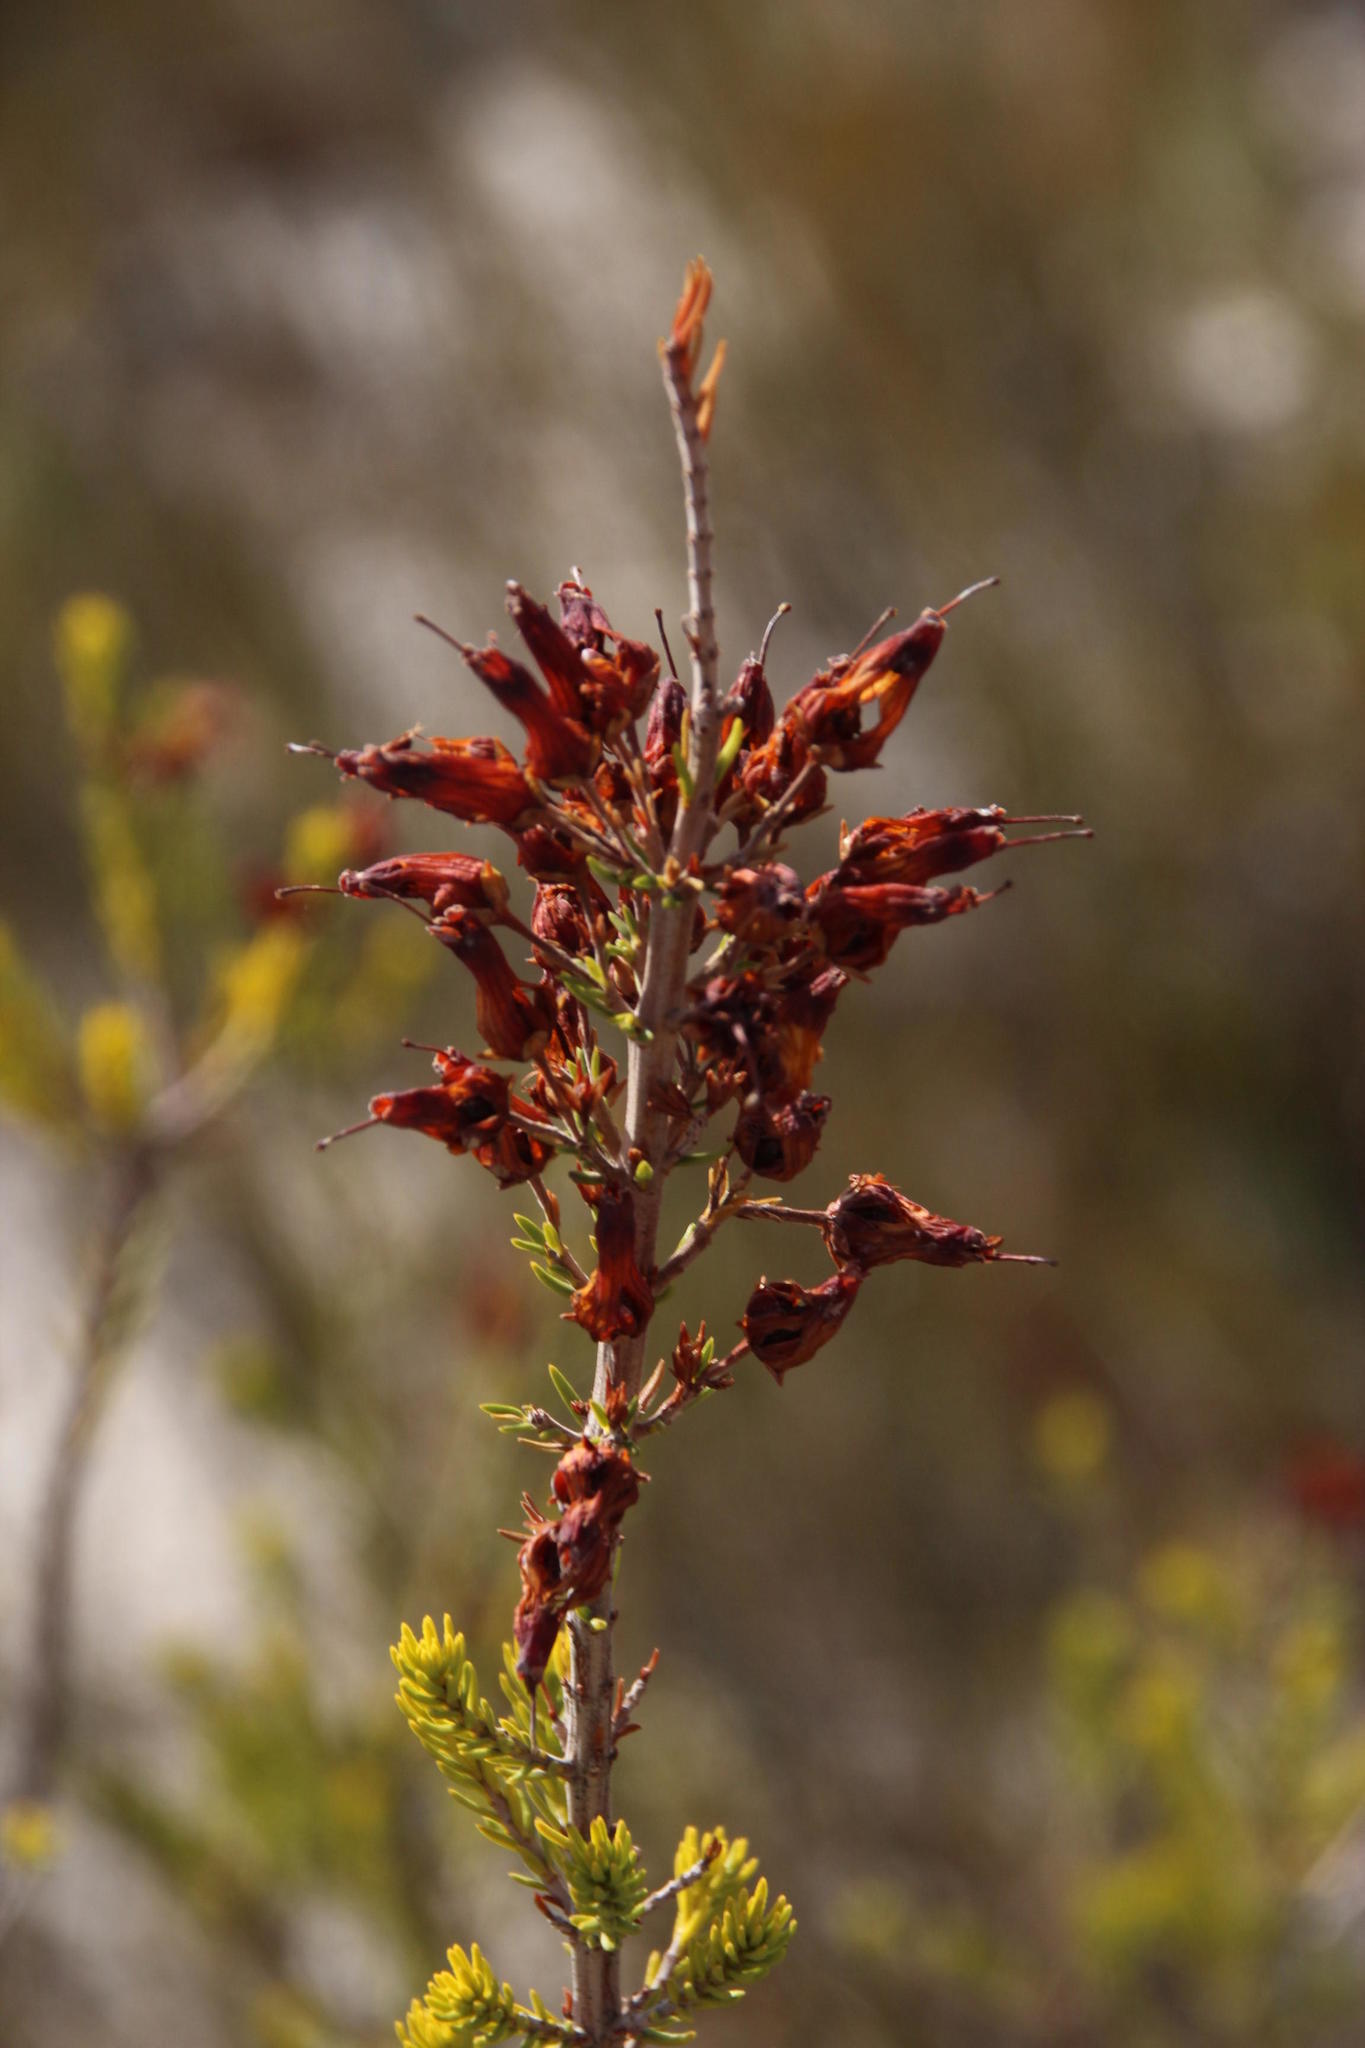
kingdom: Plantae
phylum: Tracheophyta
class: Magnoliopsida
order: Ericales
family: Ericaceae
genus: Erica
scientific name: Erica mammosa
